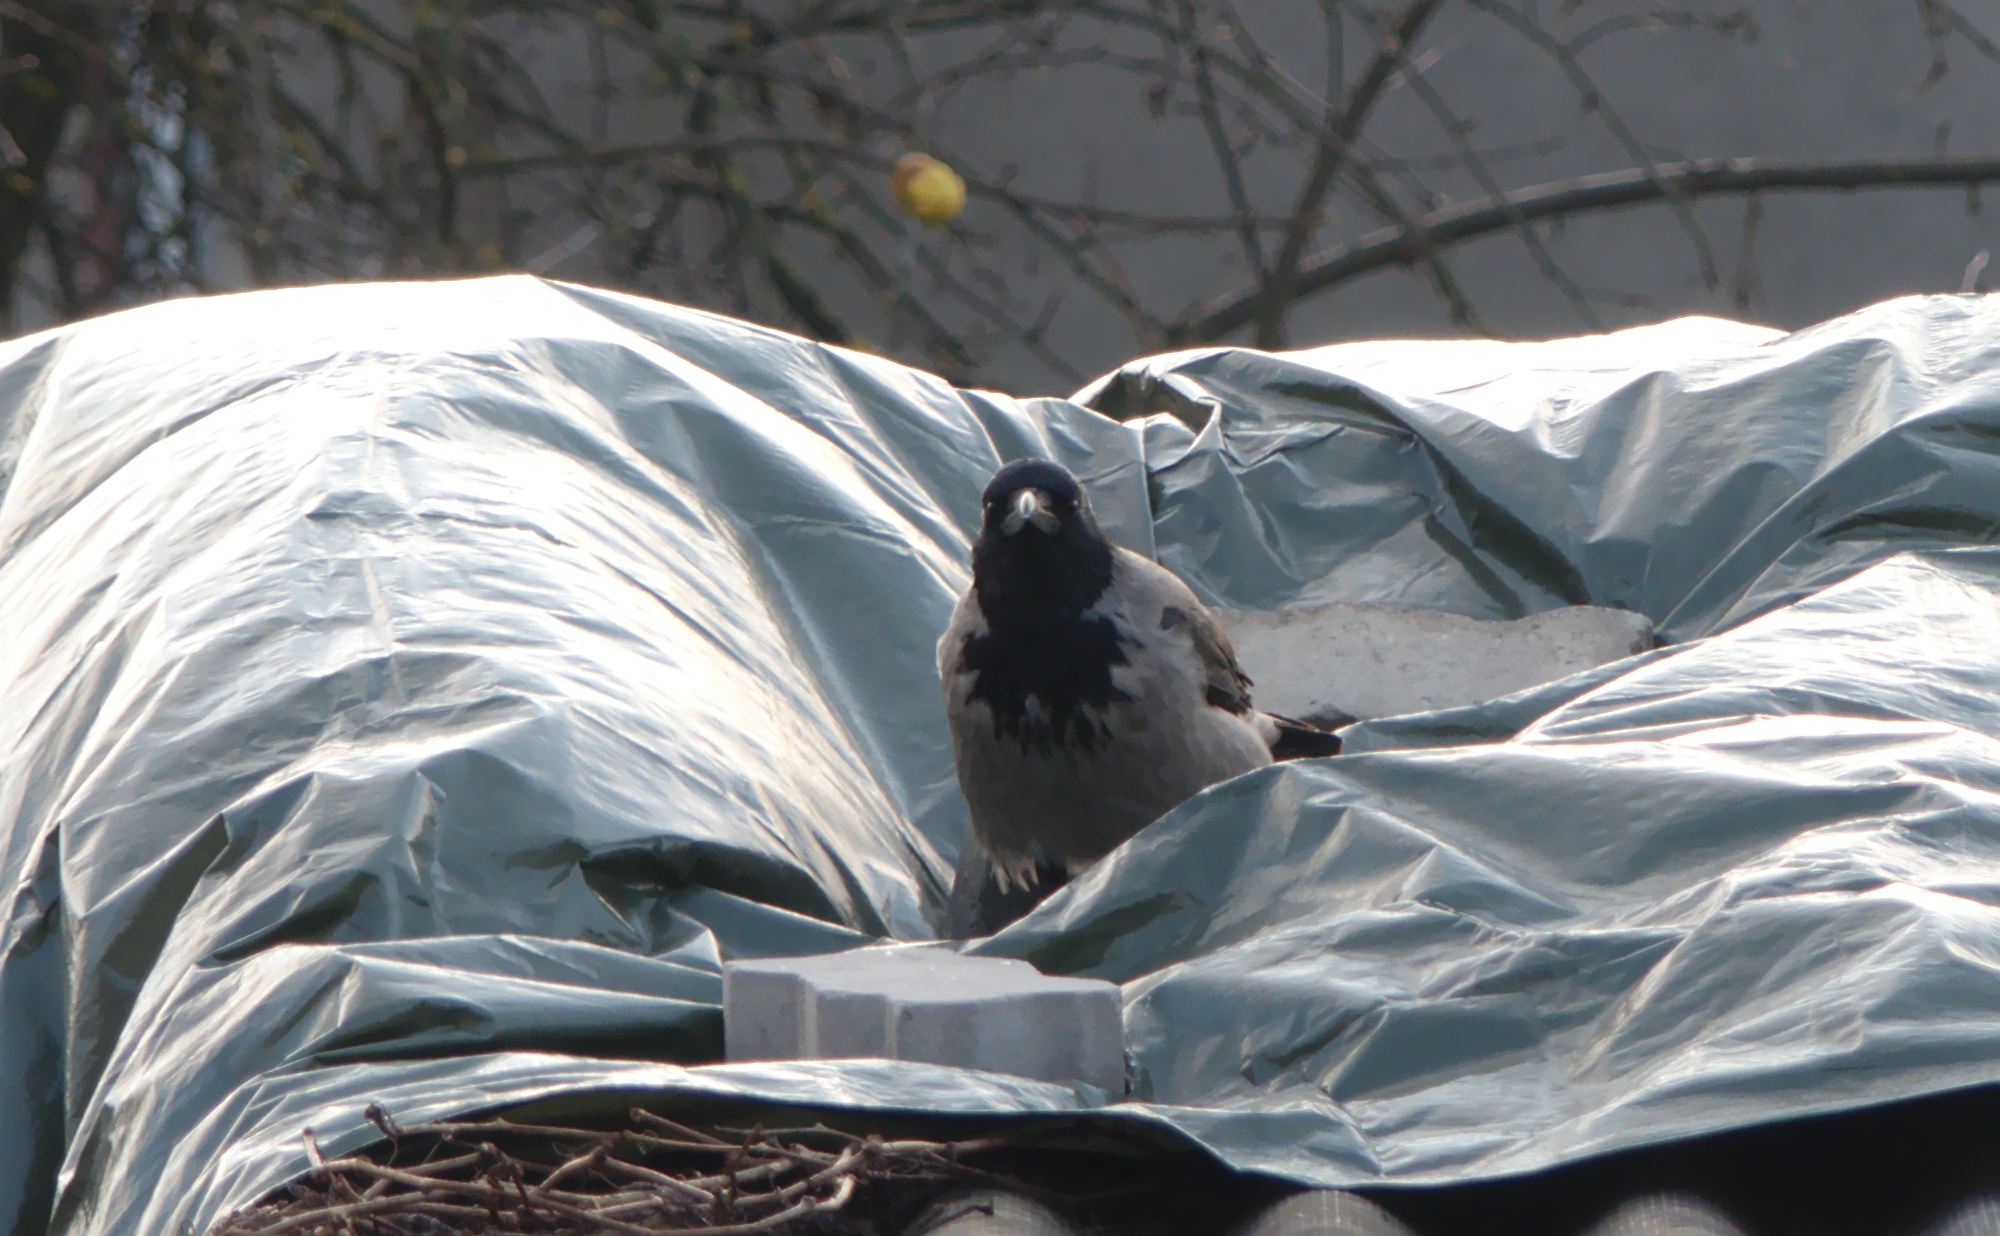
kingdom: Animalia
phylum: Chordata
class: Aves
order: Passeriformes
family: Corvidae
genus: Corvus
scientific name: Corvus cornix
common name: Hooded crow
